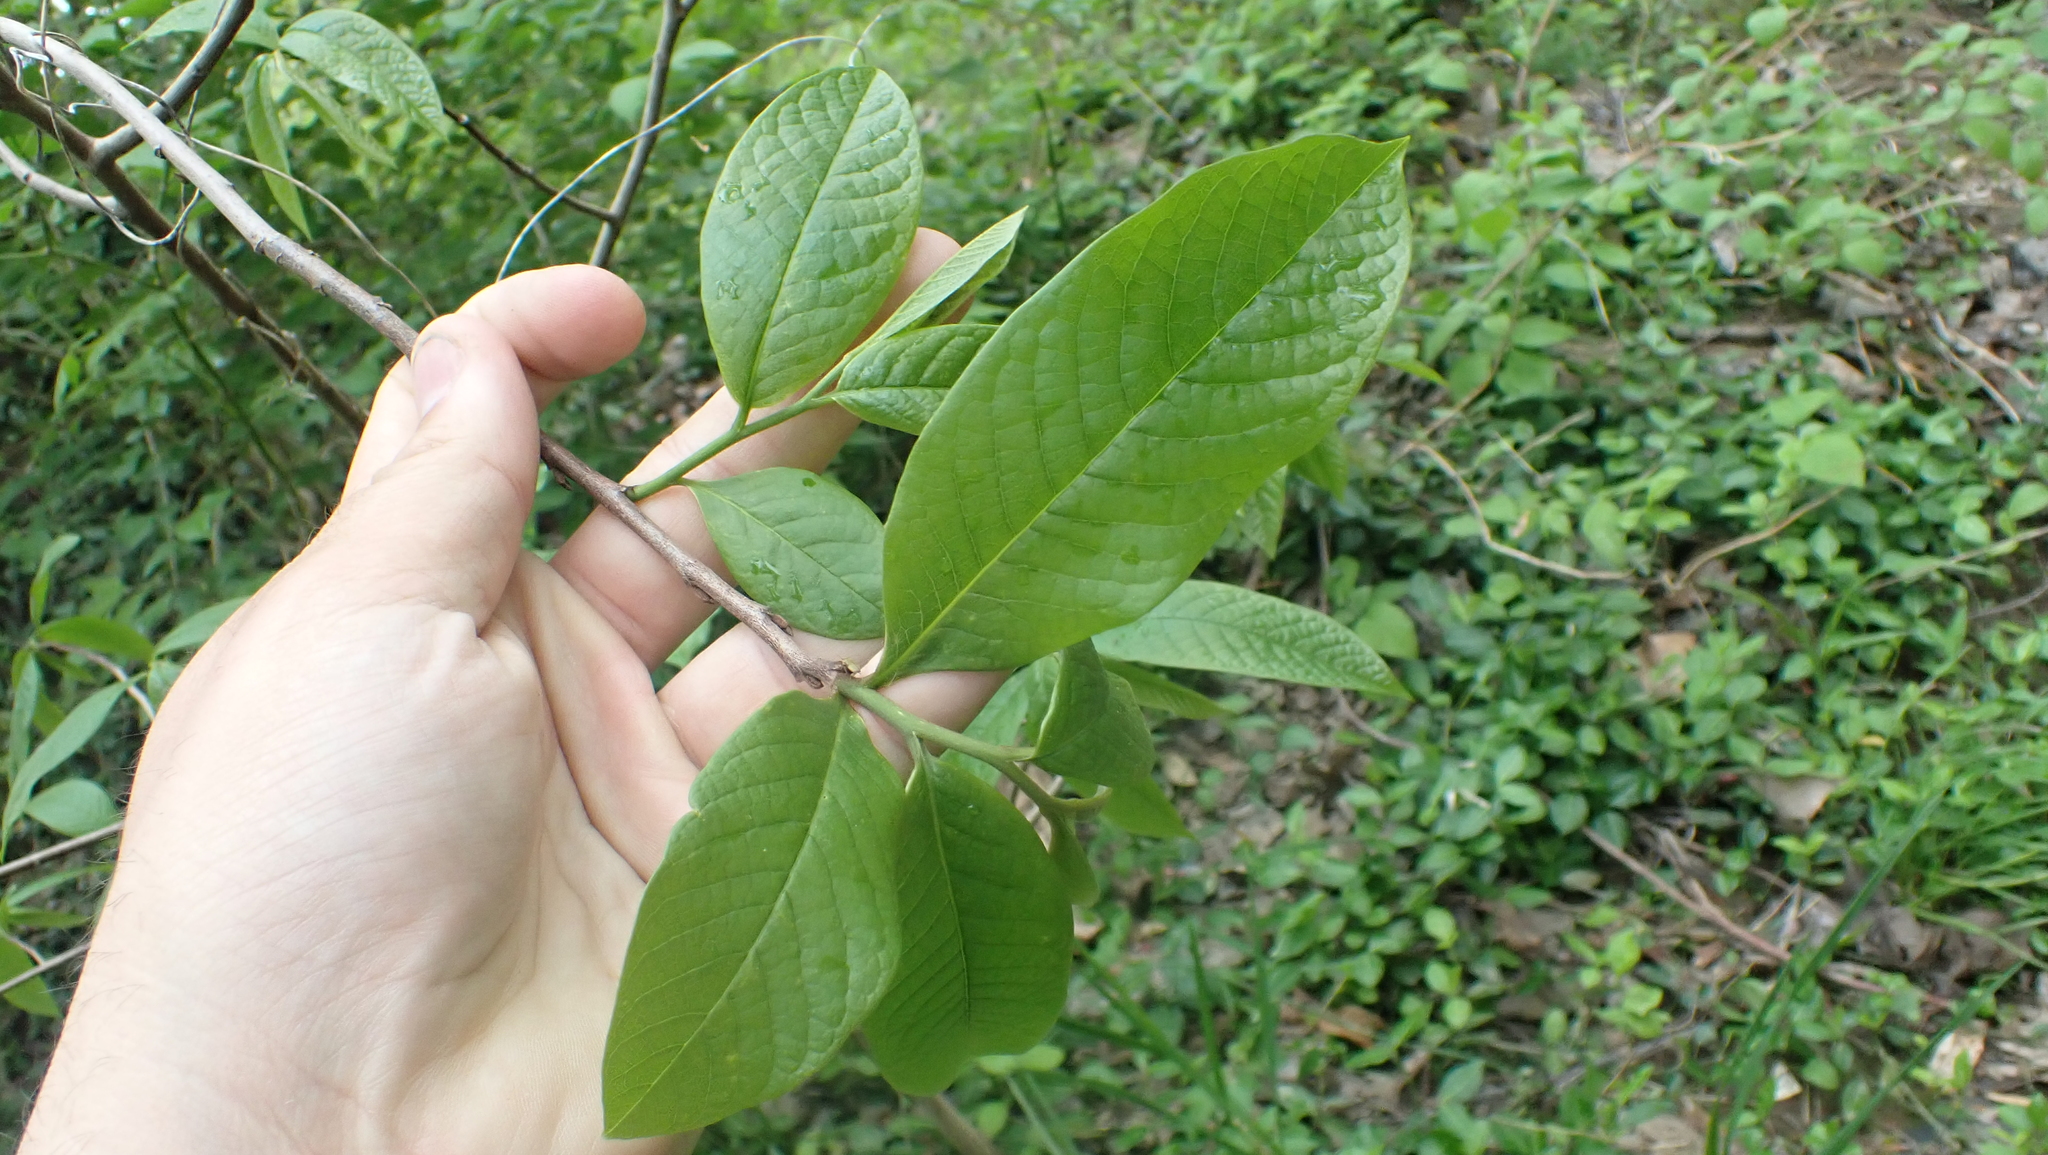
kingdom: Plantae
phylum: Tracheophyta
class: Magnoliopsida
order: Magnoliales
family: Annonaceae
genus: Asimina
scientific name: Asimina triloba
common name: Dog-banana
